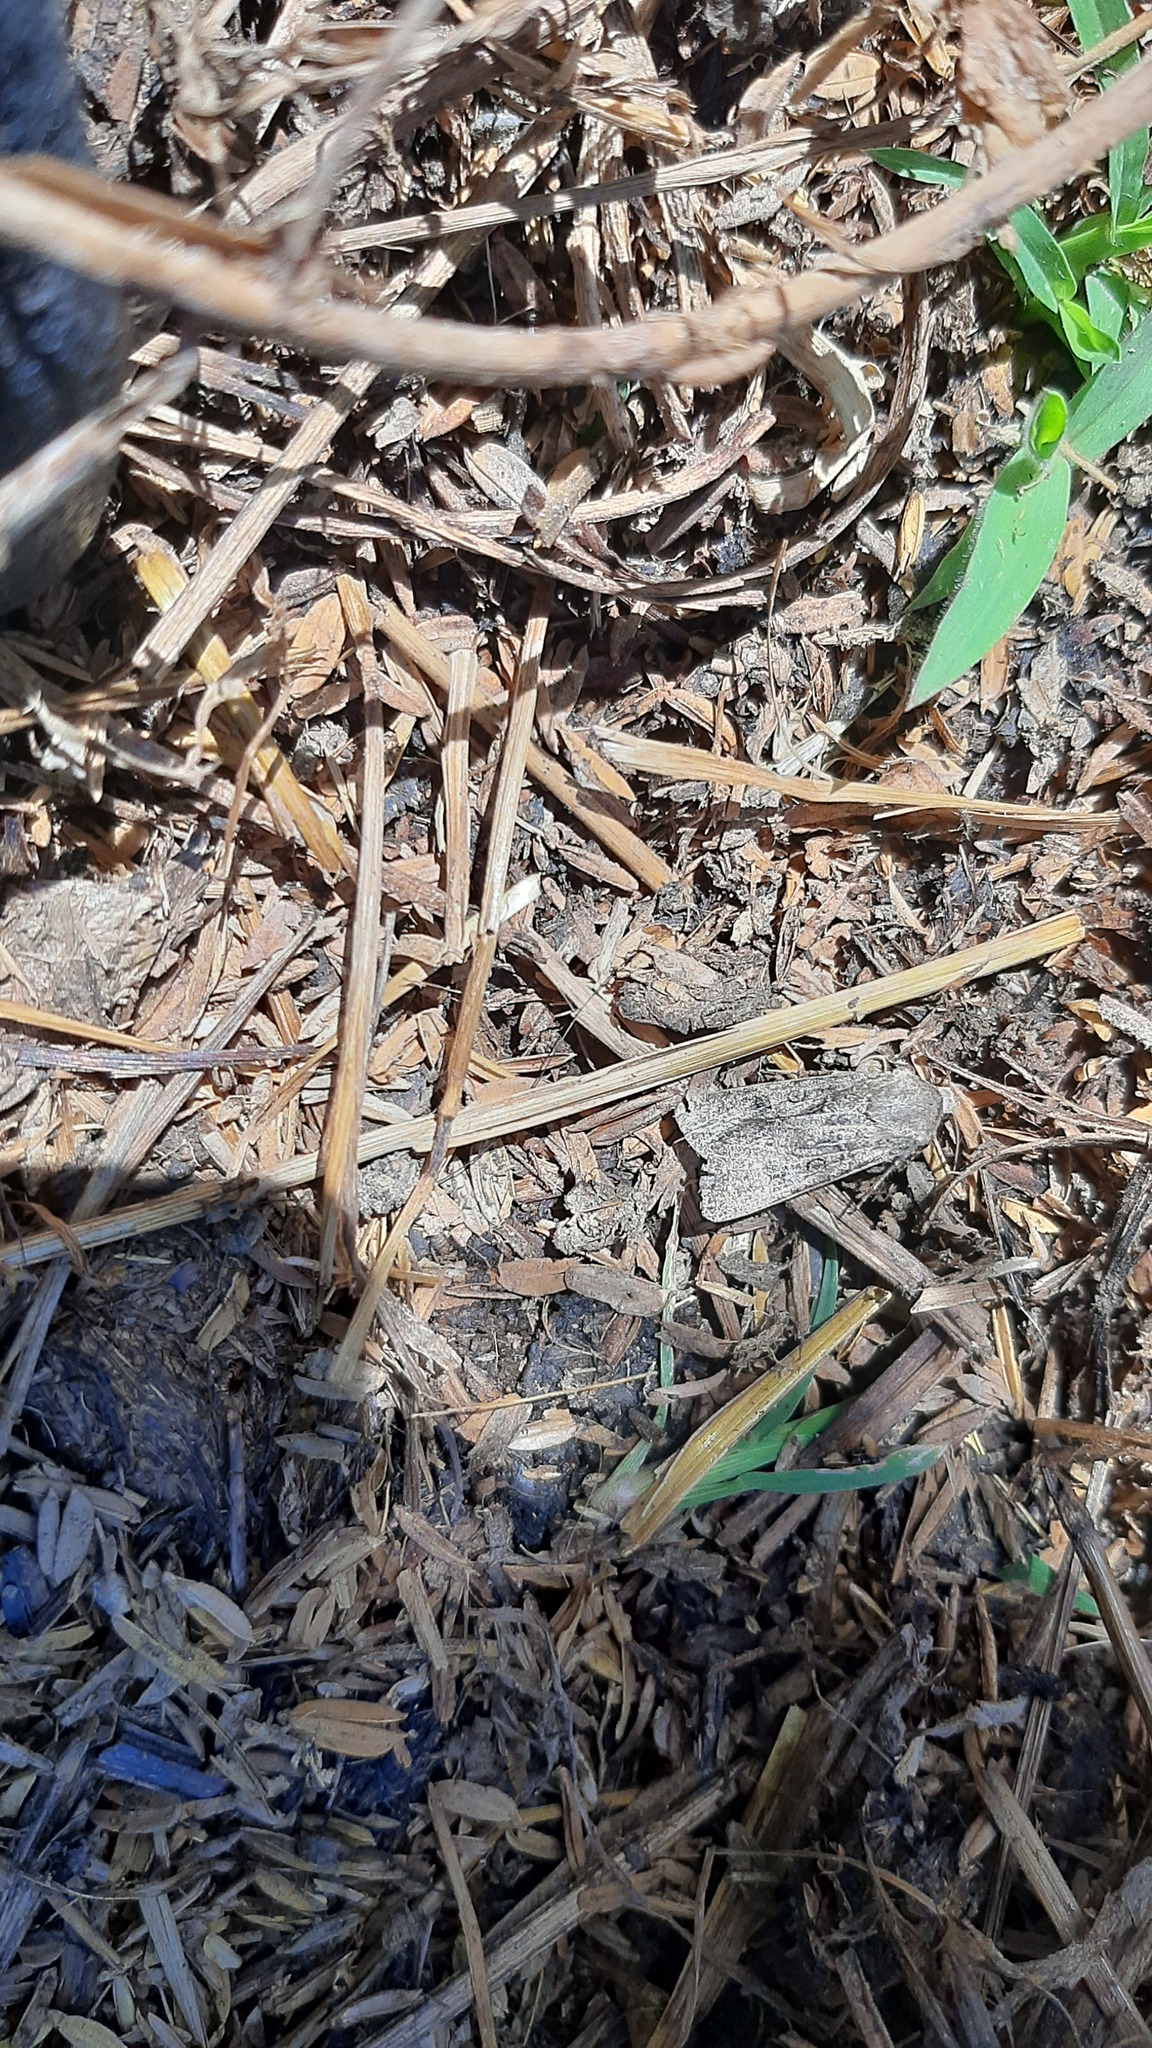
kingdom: Animalia
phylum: Arthropoda
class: Insecta
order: Lepidoptera
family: Noctuidae
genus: Agrotis
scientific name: Agrotis segetum
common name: Turnip moth
